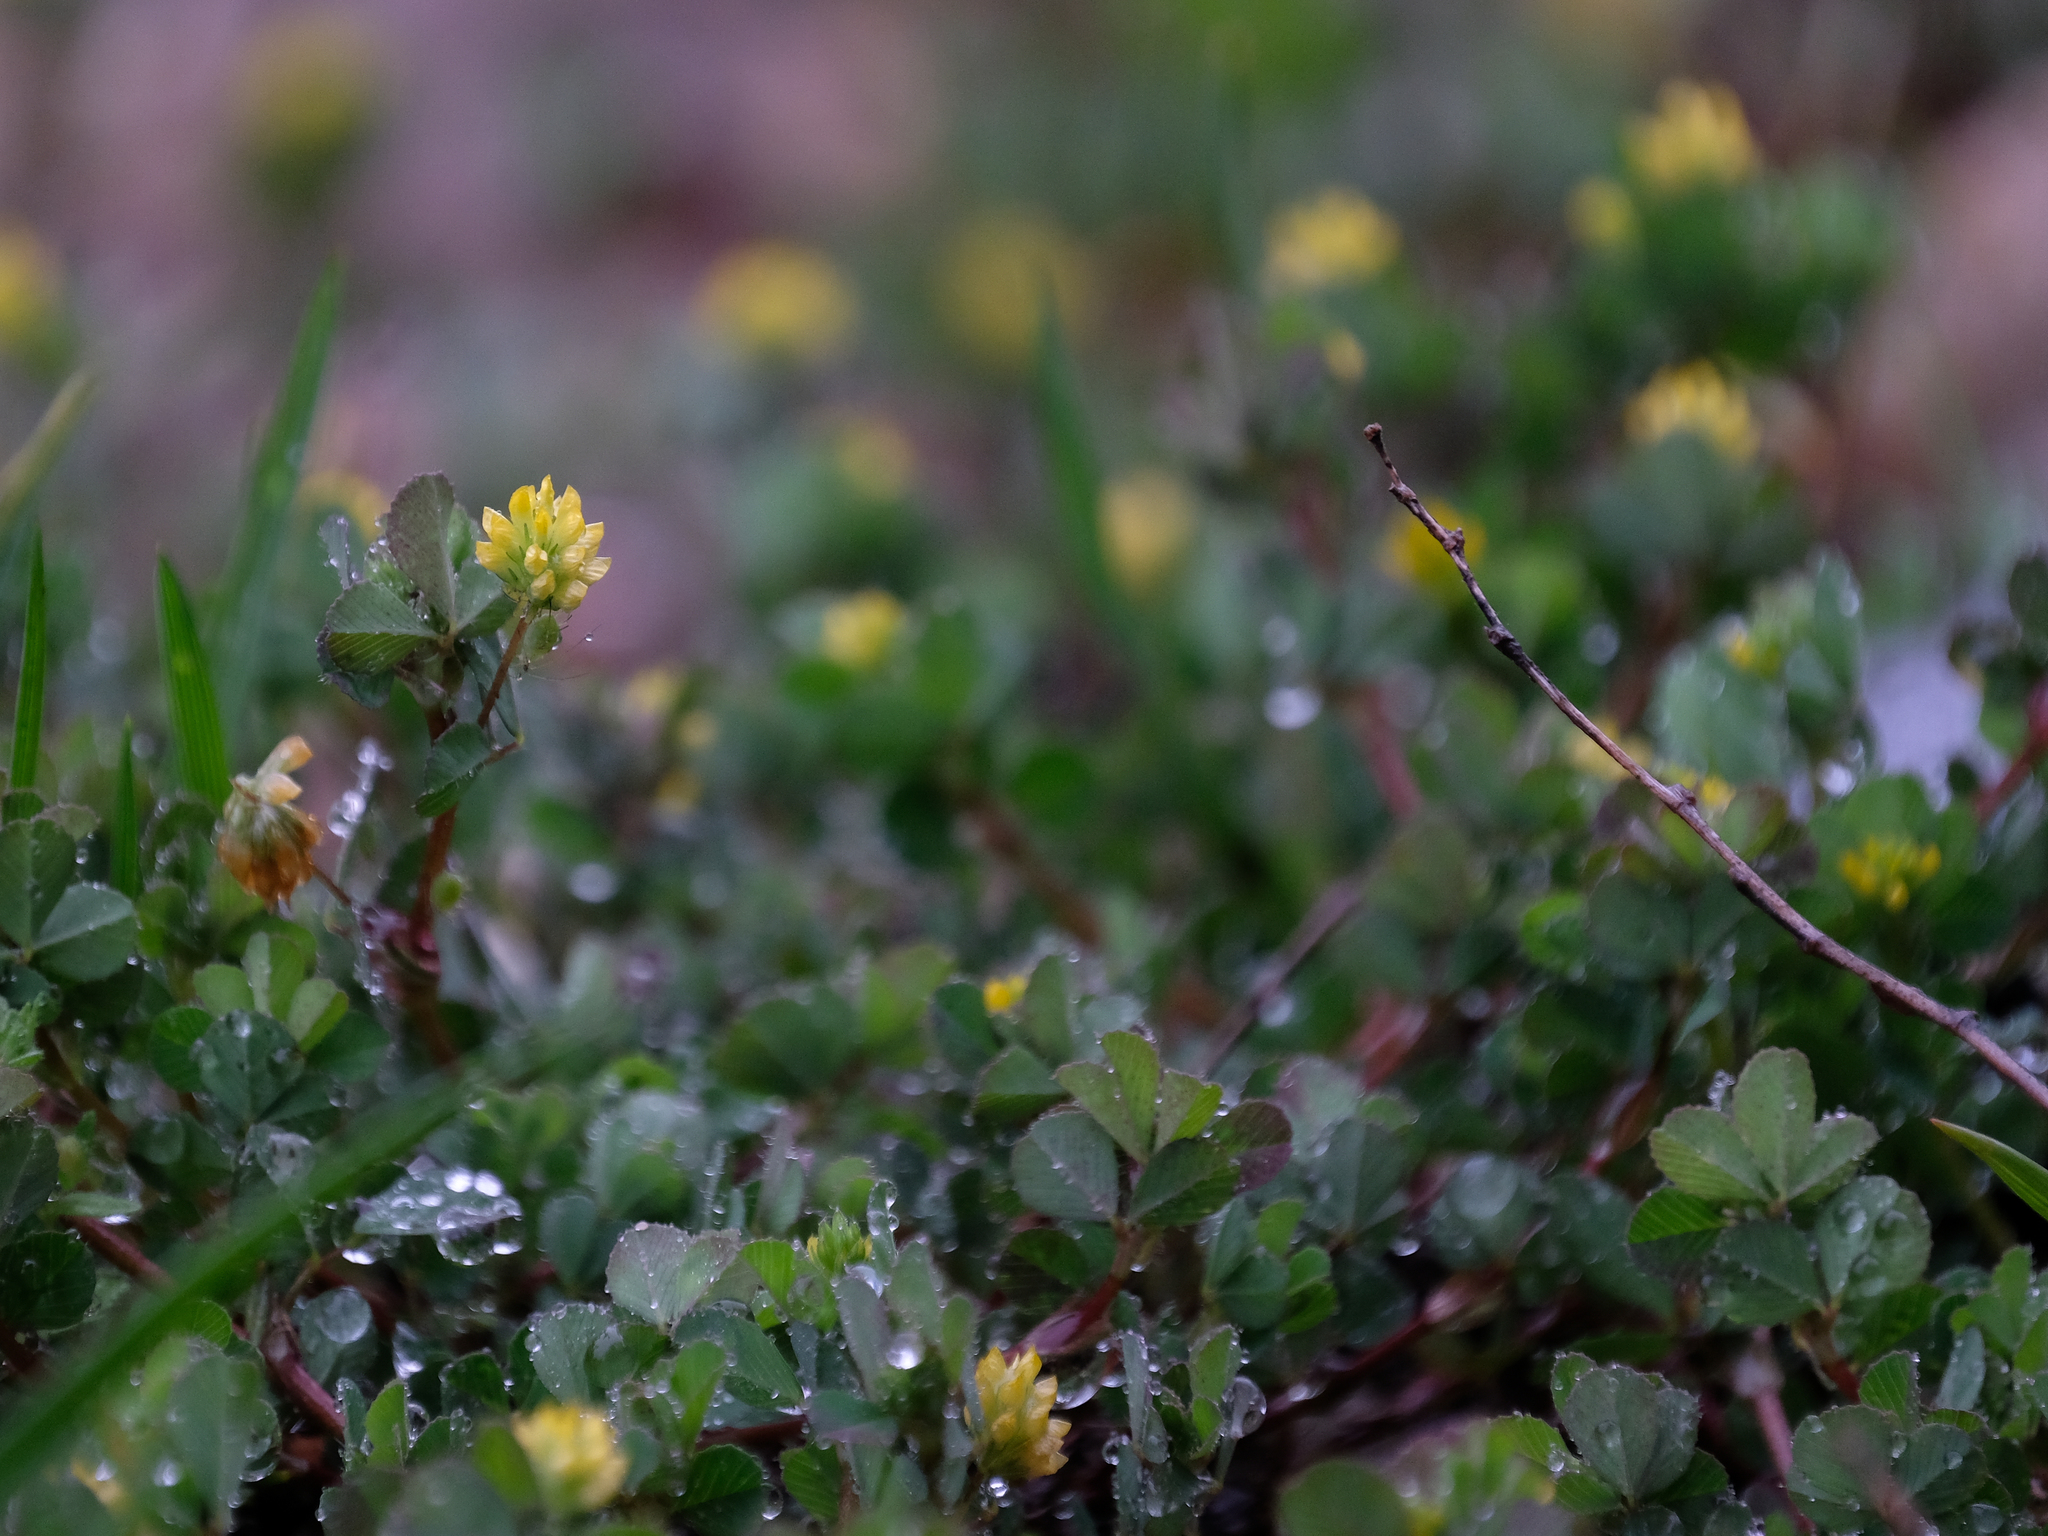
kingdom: Plantae
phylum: Tracheophyta
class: Magnoliopsida
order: Fabales
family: Fabaceae
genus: Trifolium
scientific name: Trifolium dubium
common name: Suckling clover
